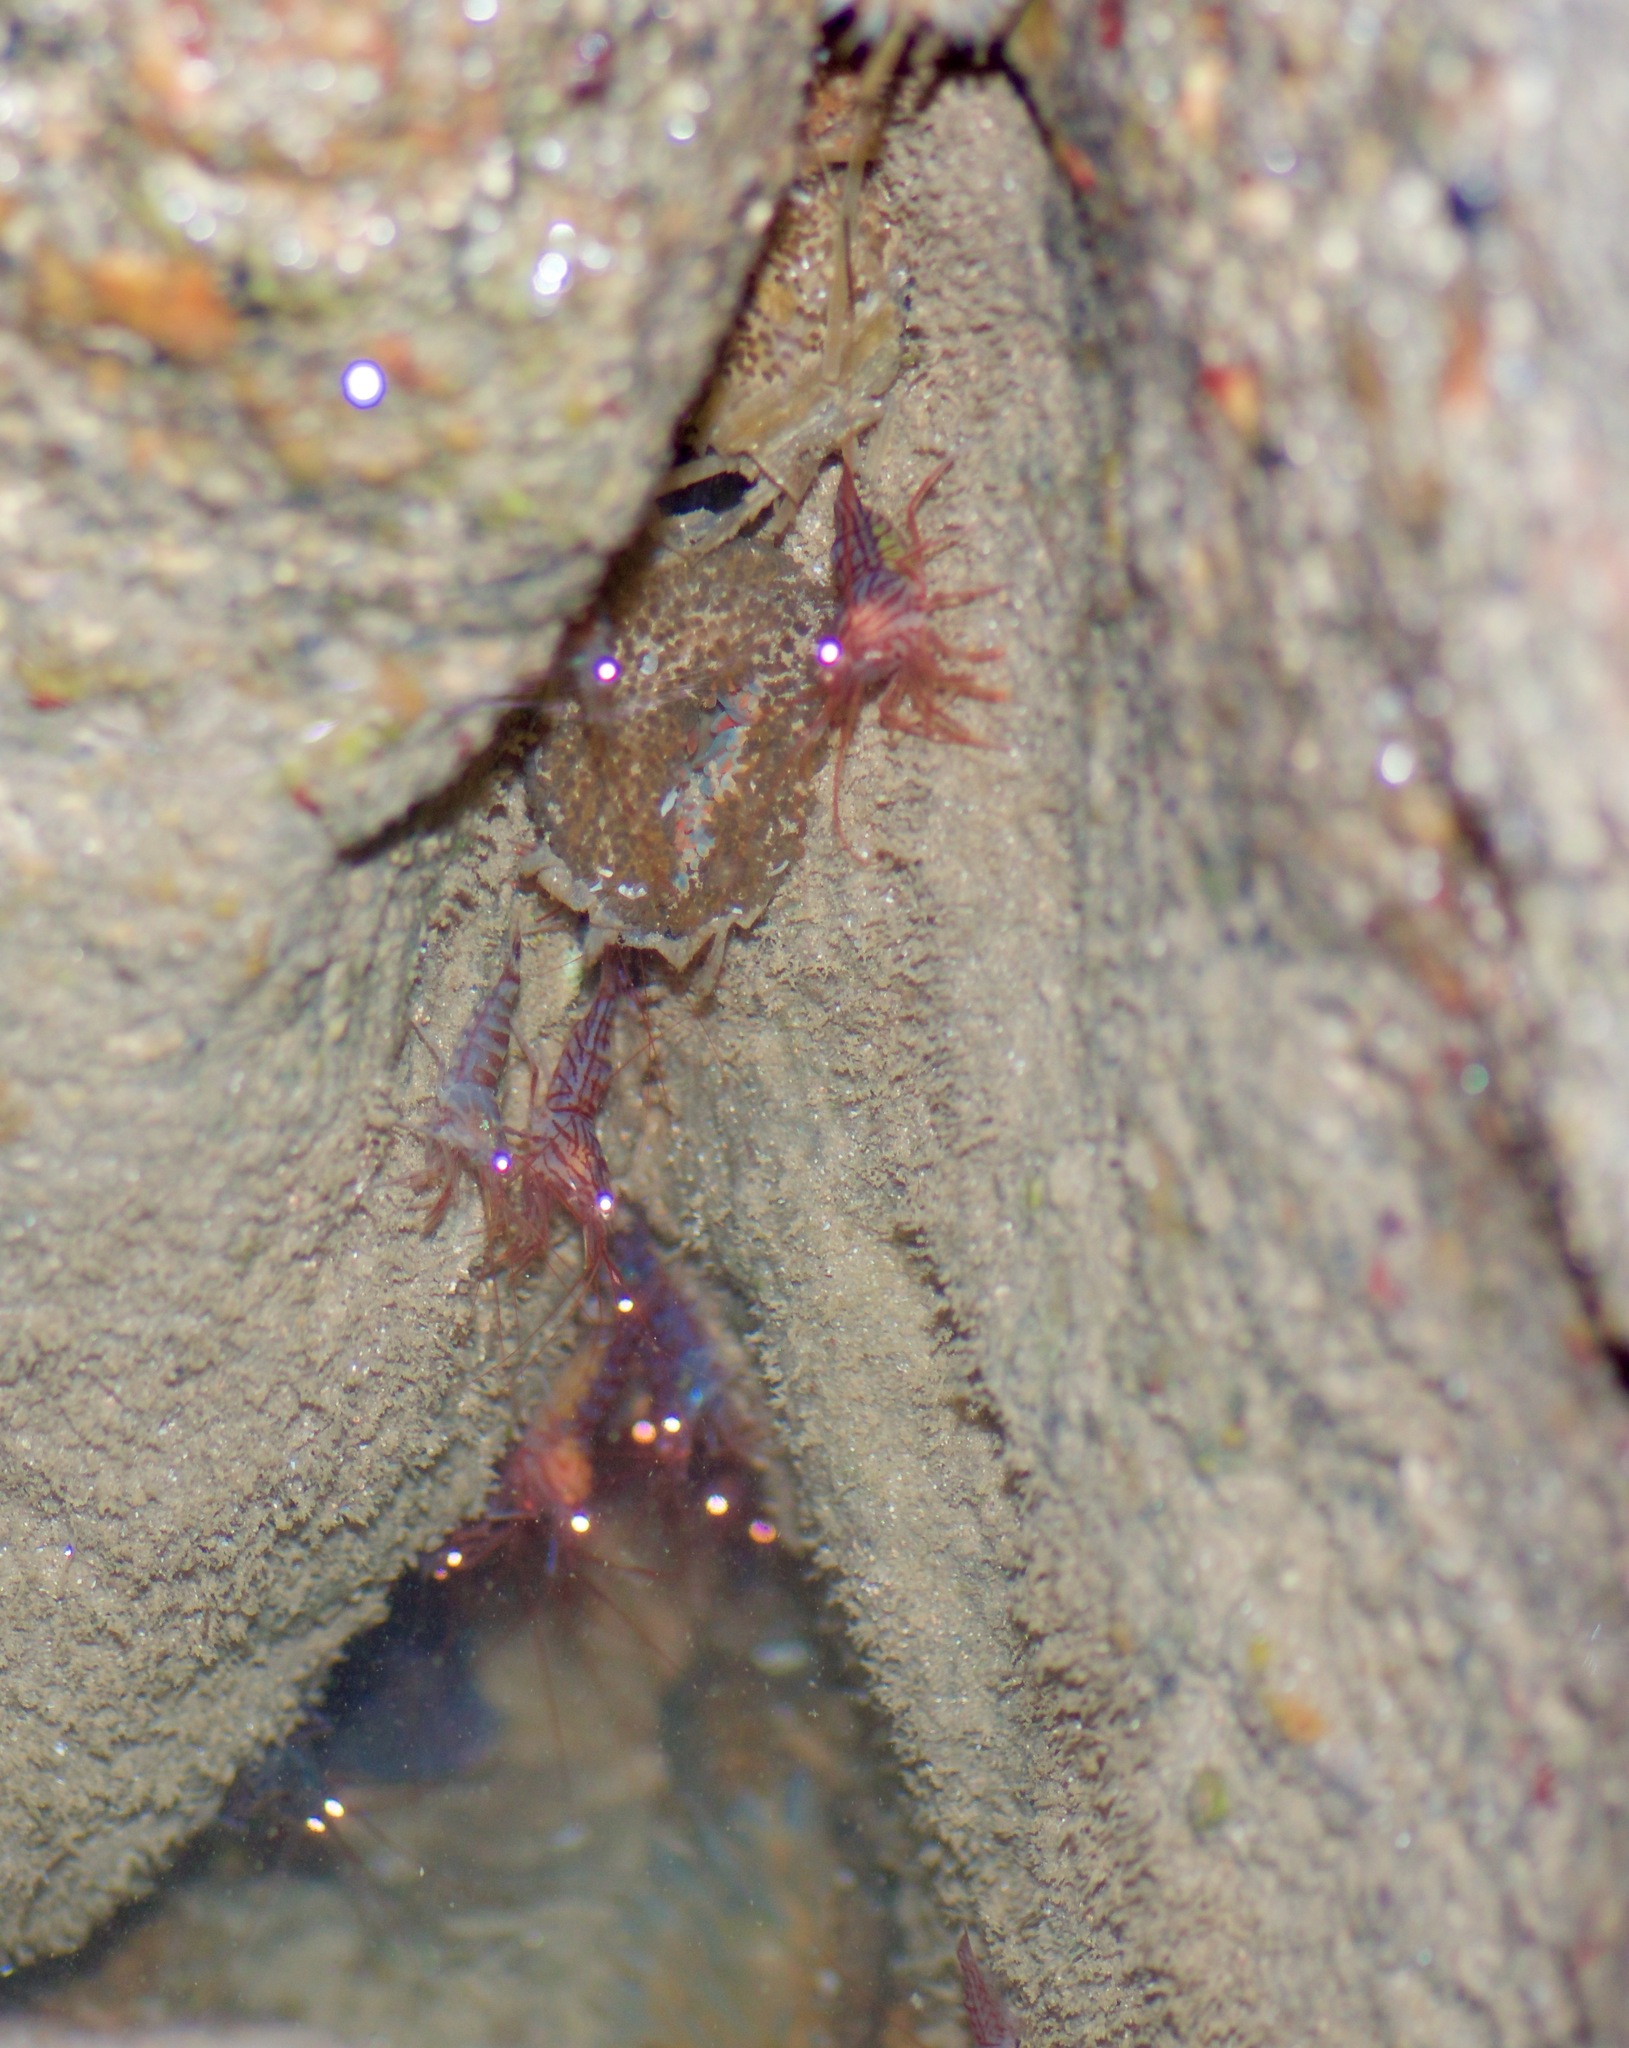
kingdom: Animalia
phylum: Arthropoda
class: Malacostraca
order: Decapoda
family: Lysmatidae
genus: Lysmata
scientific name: Lysmata hochi
